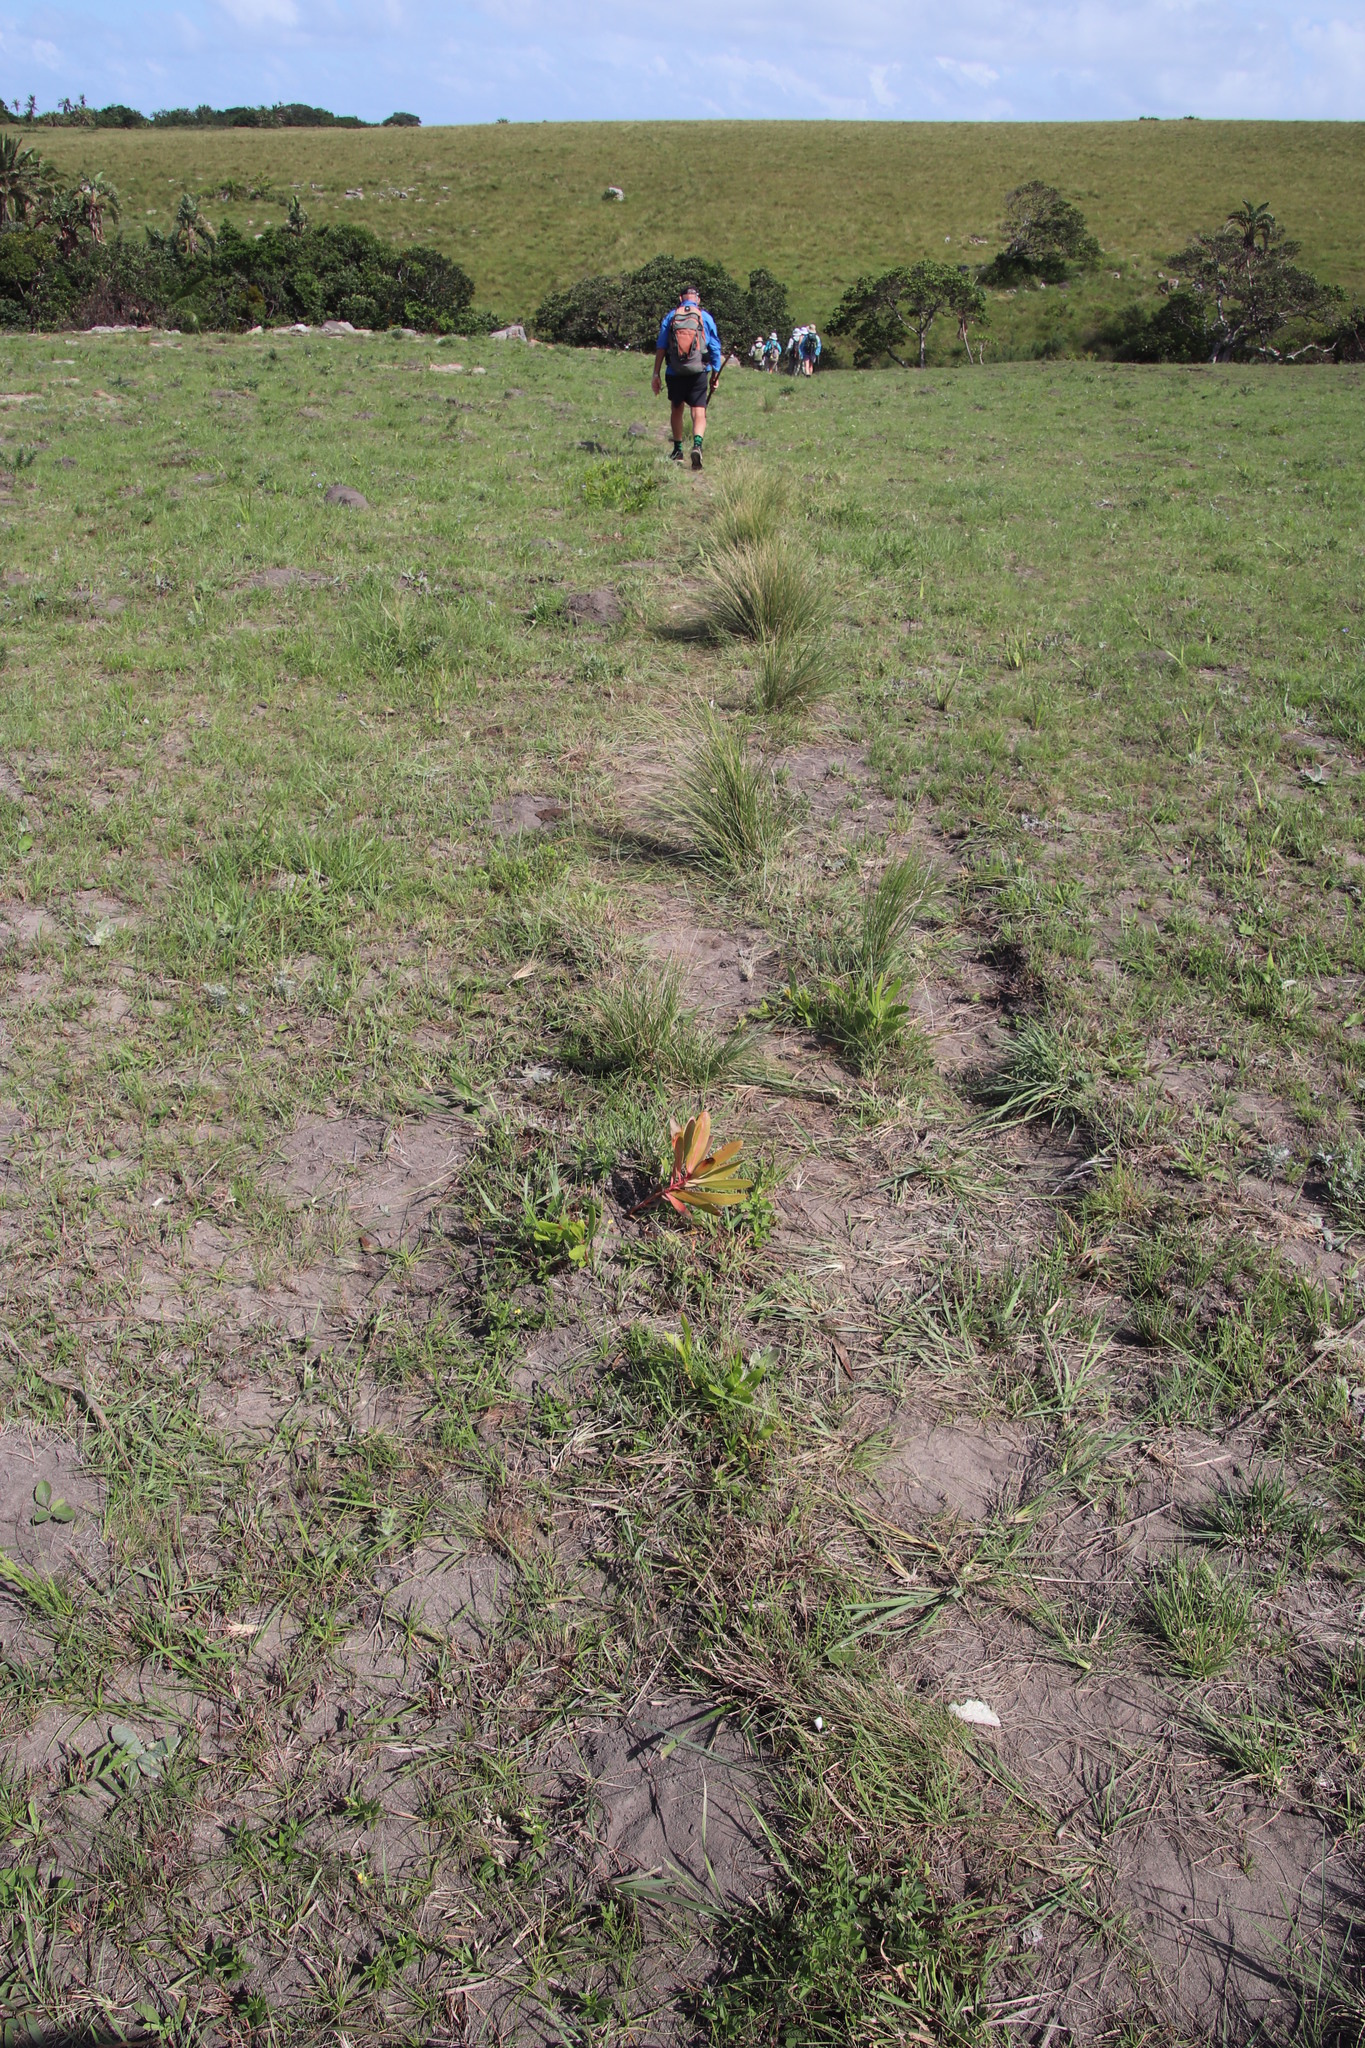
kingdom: Plantae
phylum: Tracheophyta
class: Magnoliopsida
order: Proteales
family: Proteaceae
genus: Protea
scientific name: Protea simplex
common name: Dwarf grassveld sugarbush
